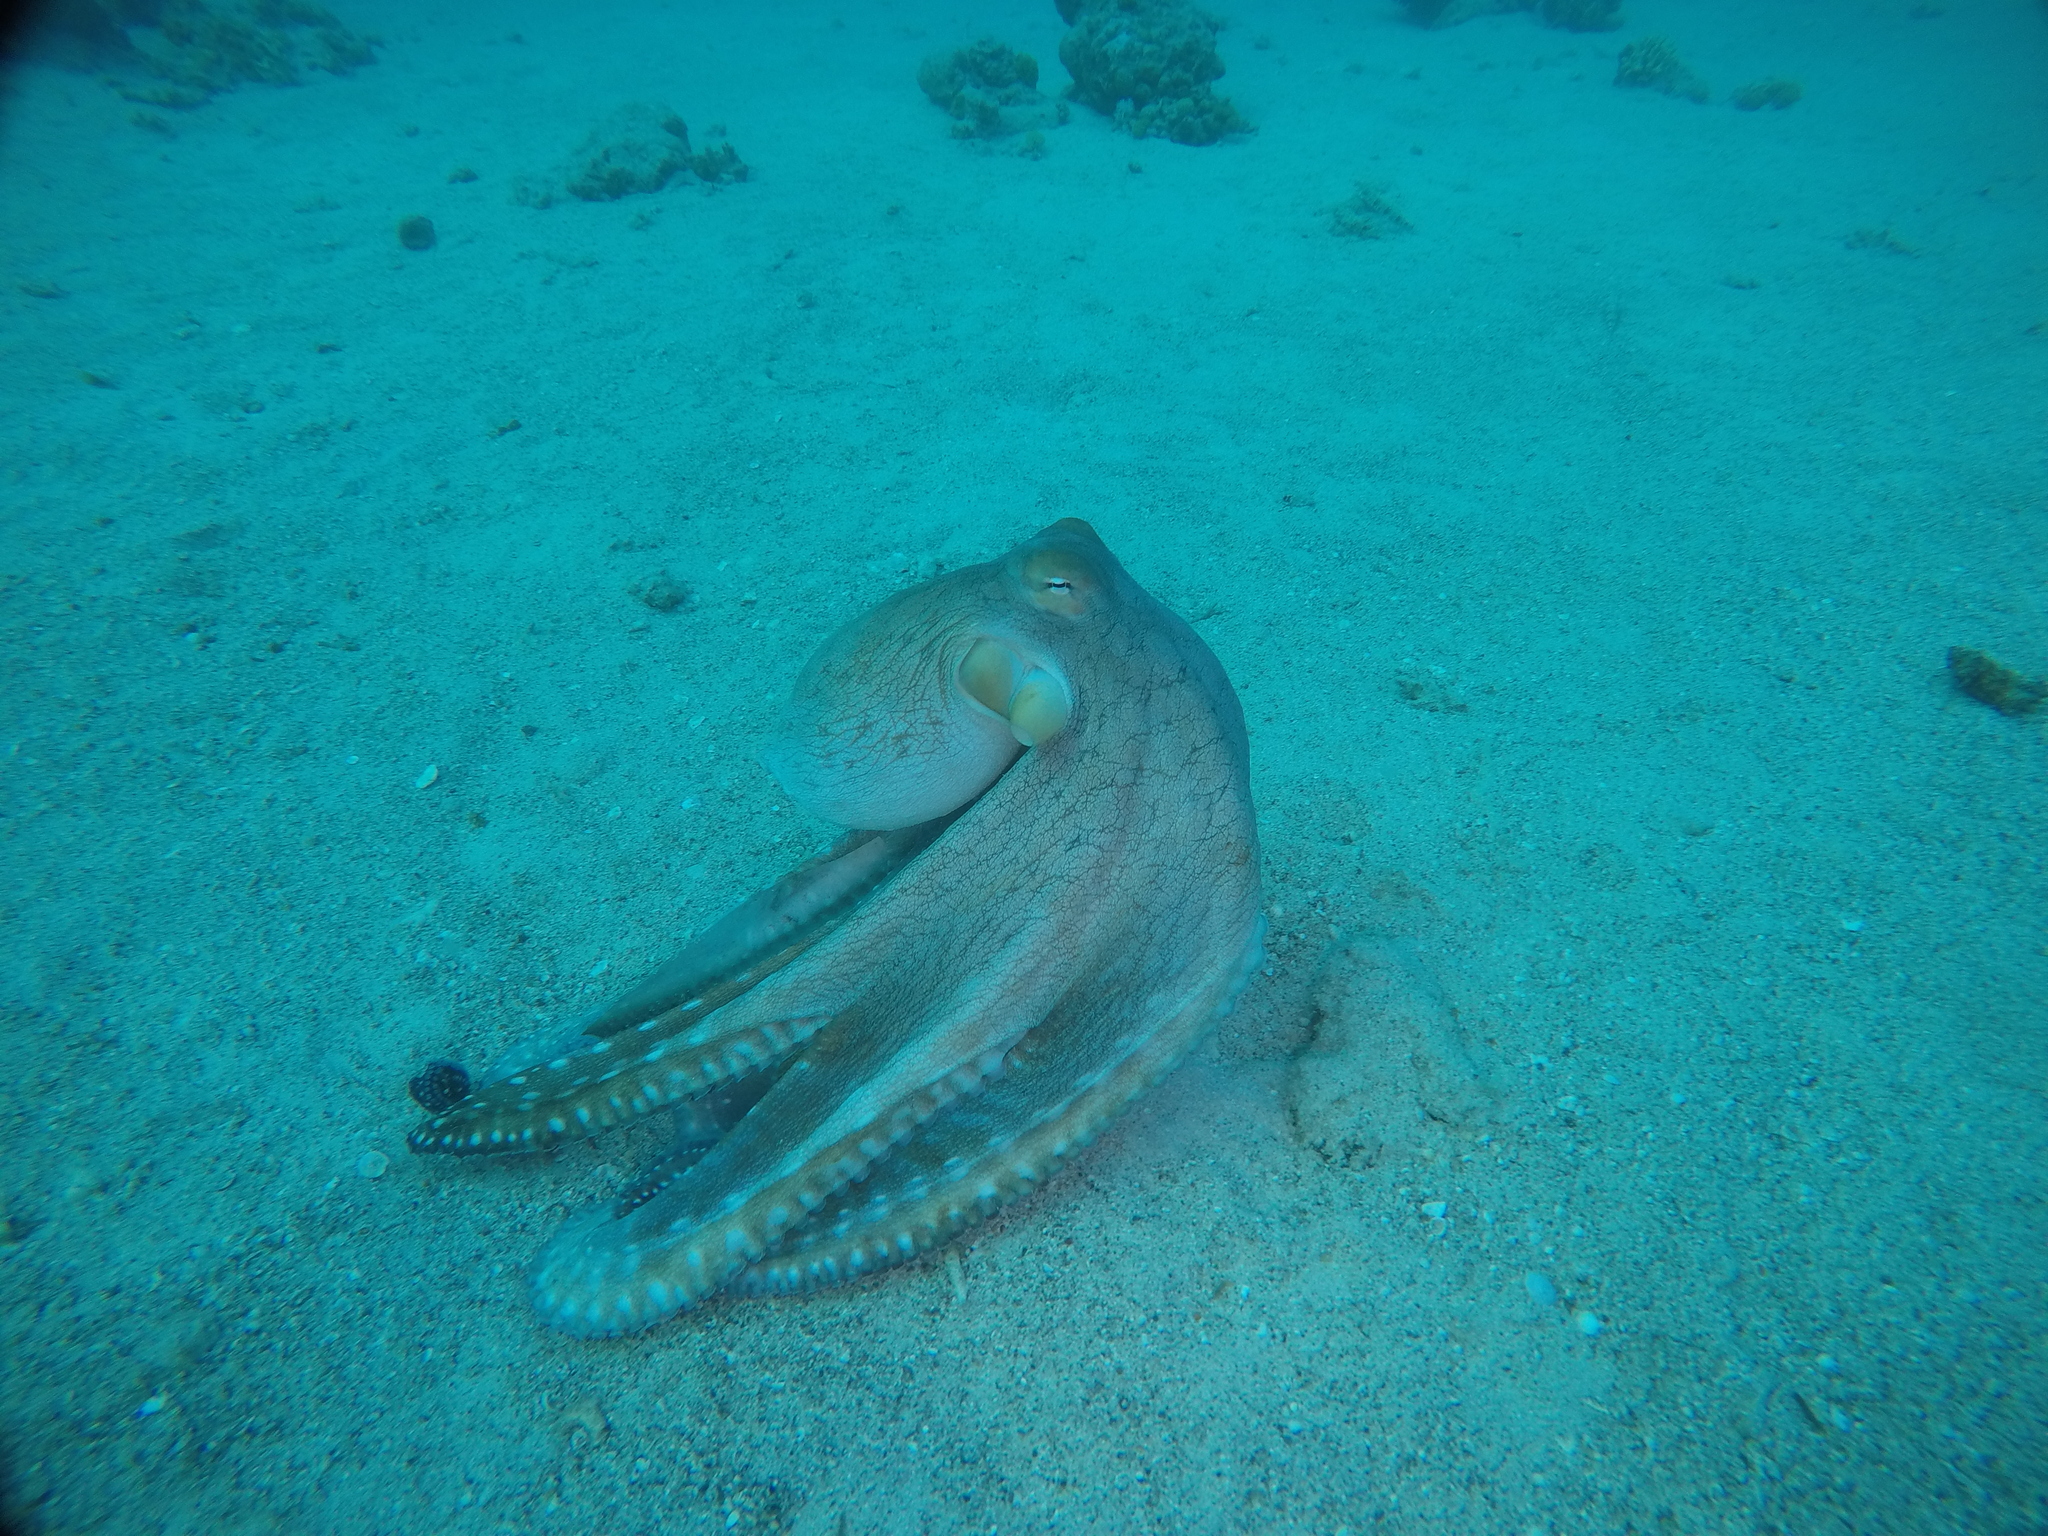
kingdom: Animalia
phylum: Mollusca
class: Cephalopoda
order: Octopoda
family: Octopodidae
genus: Octopus
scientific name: Octopus cyanea
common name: Cyane's octopus
